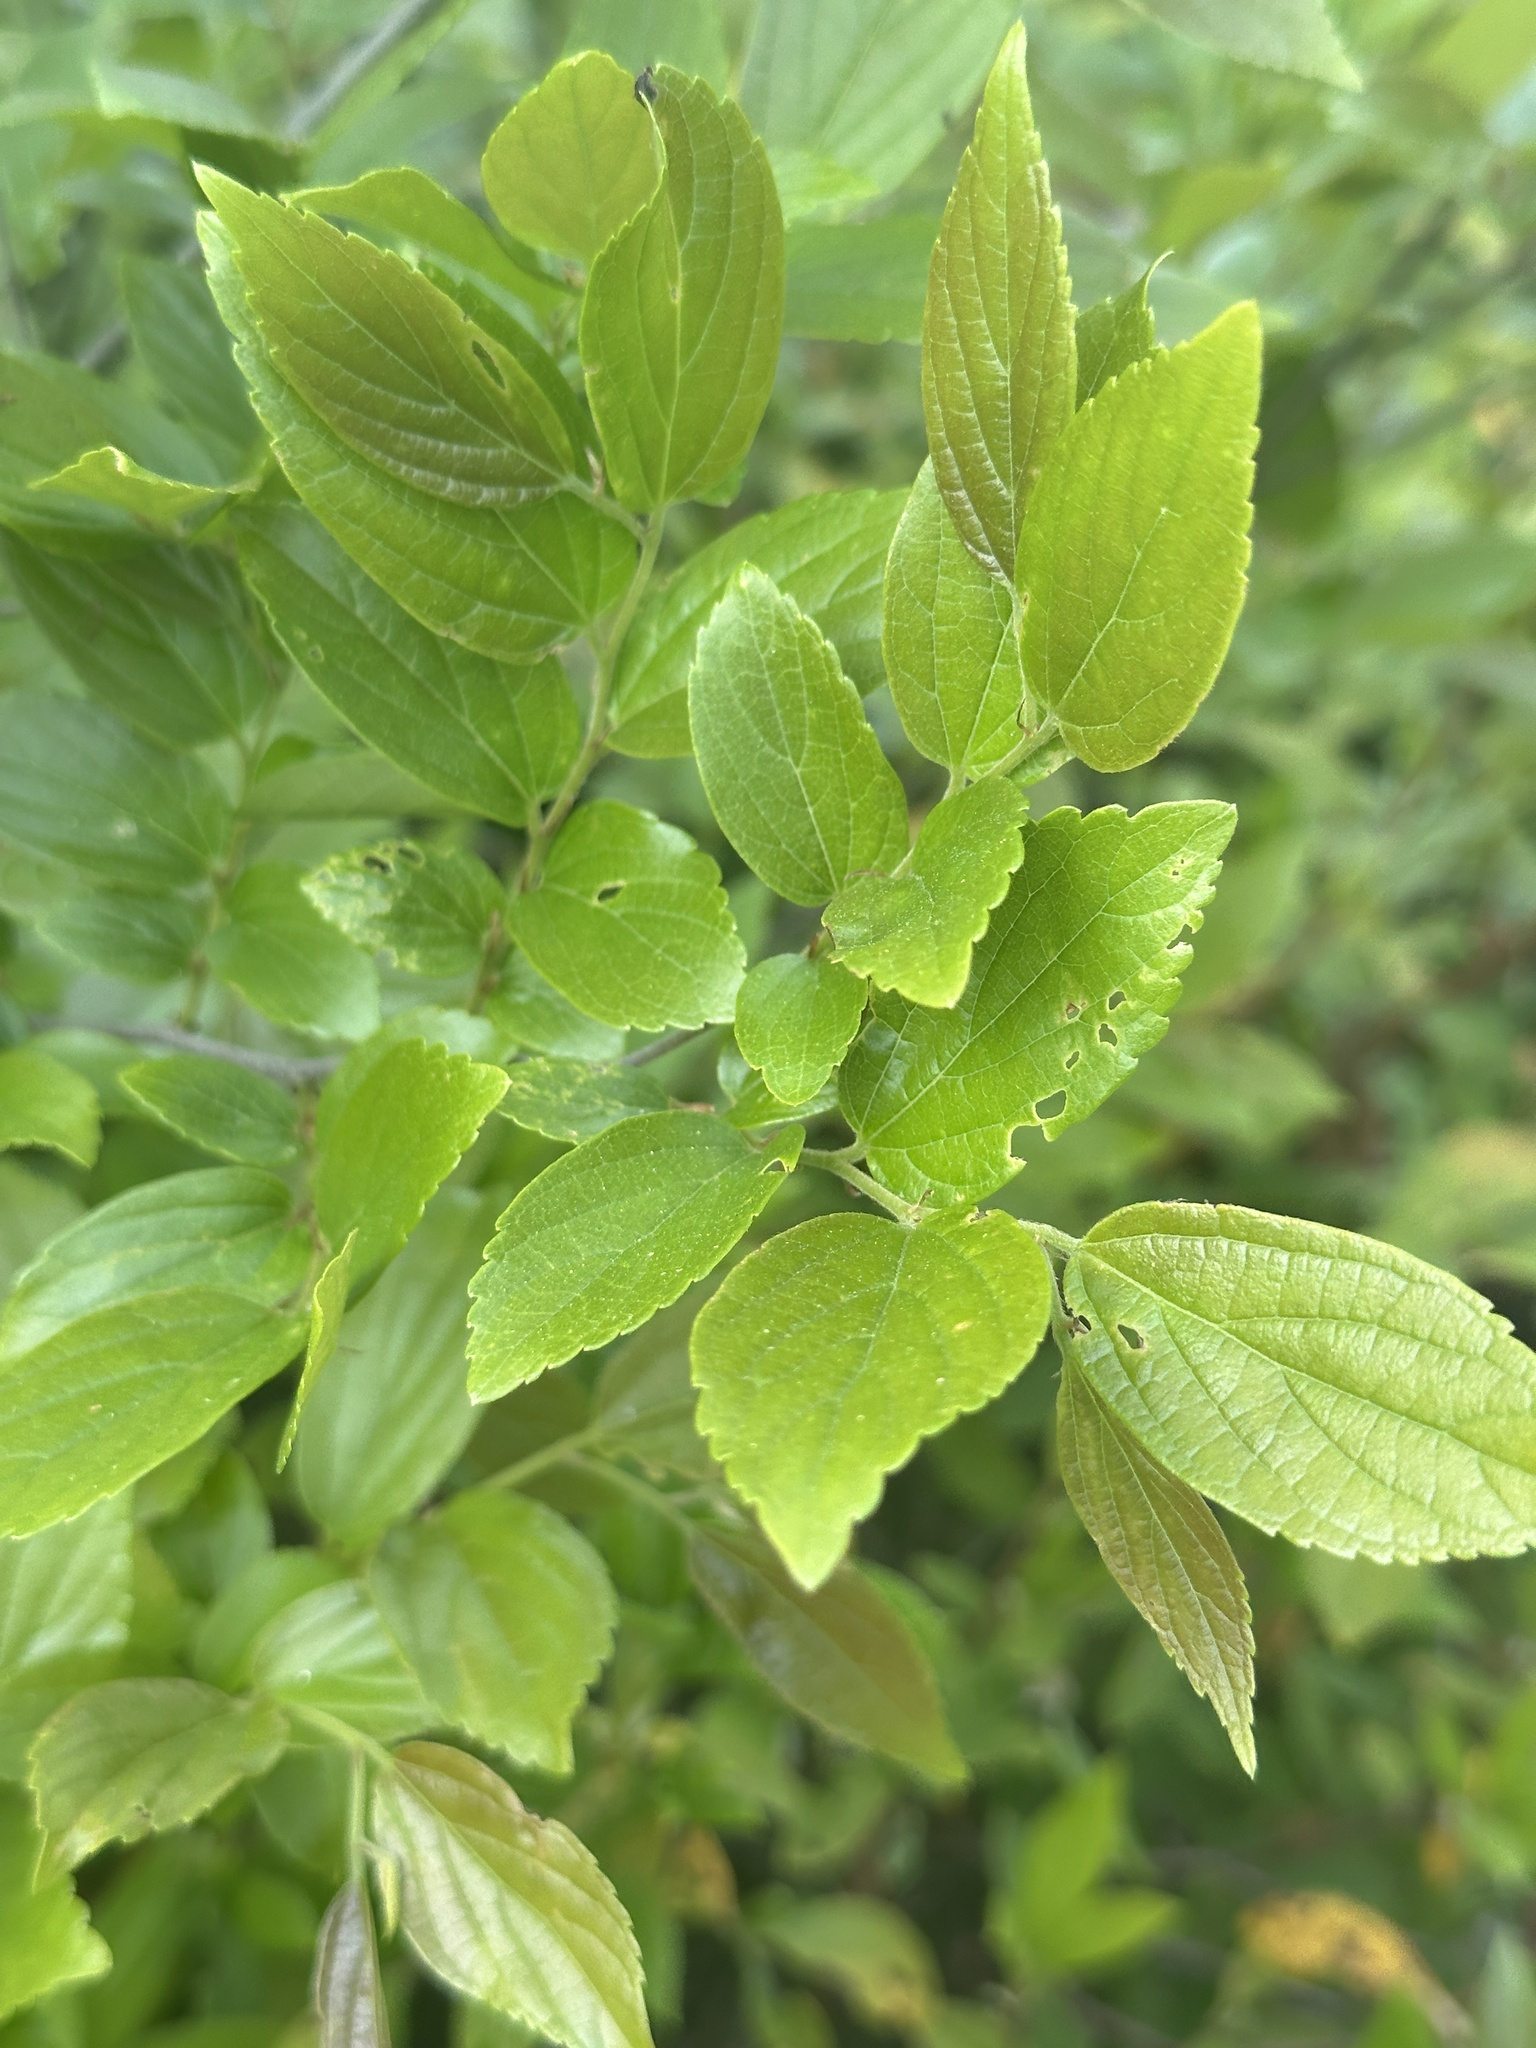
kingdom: Plantae
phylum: Tracheophyta
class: Magnoliopsida
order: Rosales
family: Cannabaceae
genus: Celtis
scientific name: Celtis sinensis
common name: Chinese hackberry
